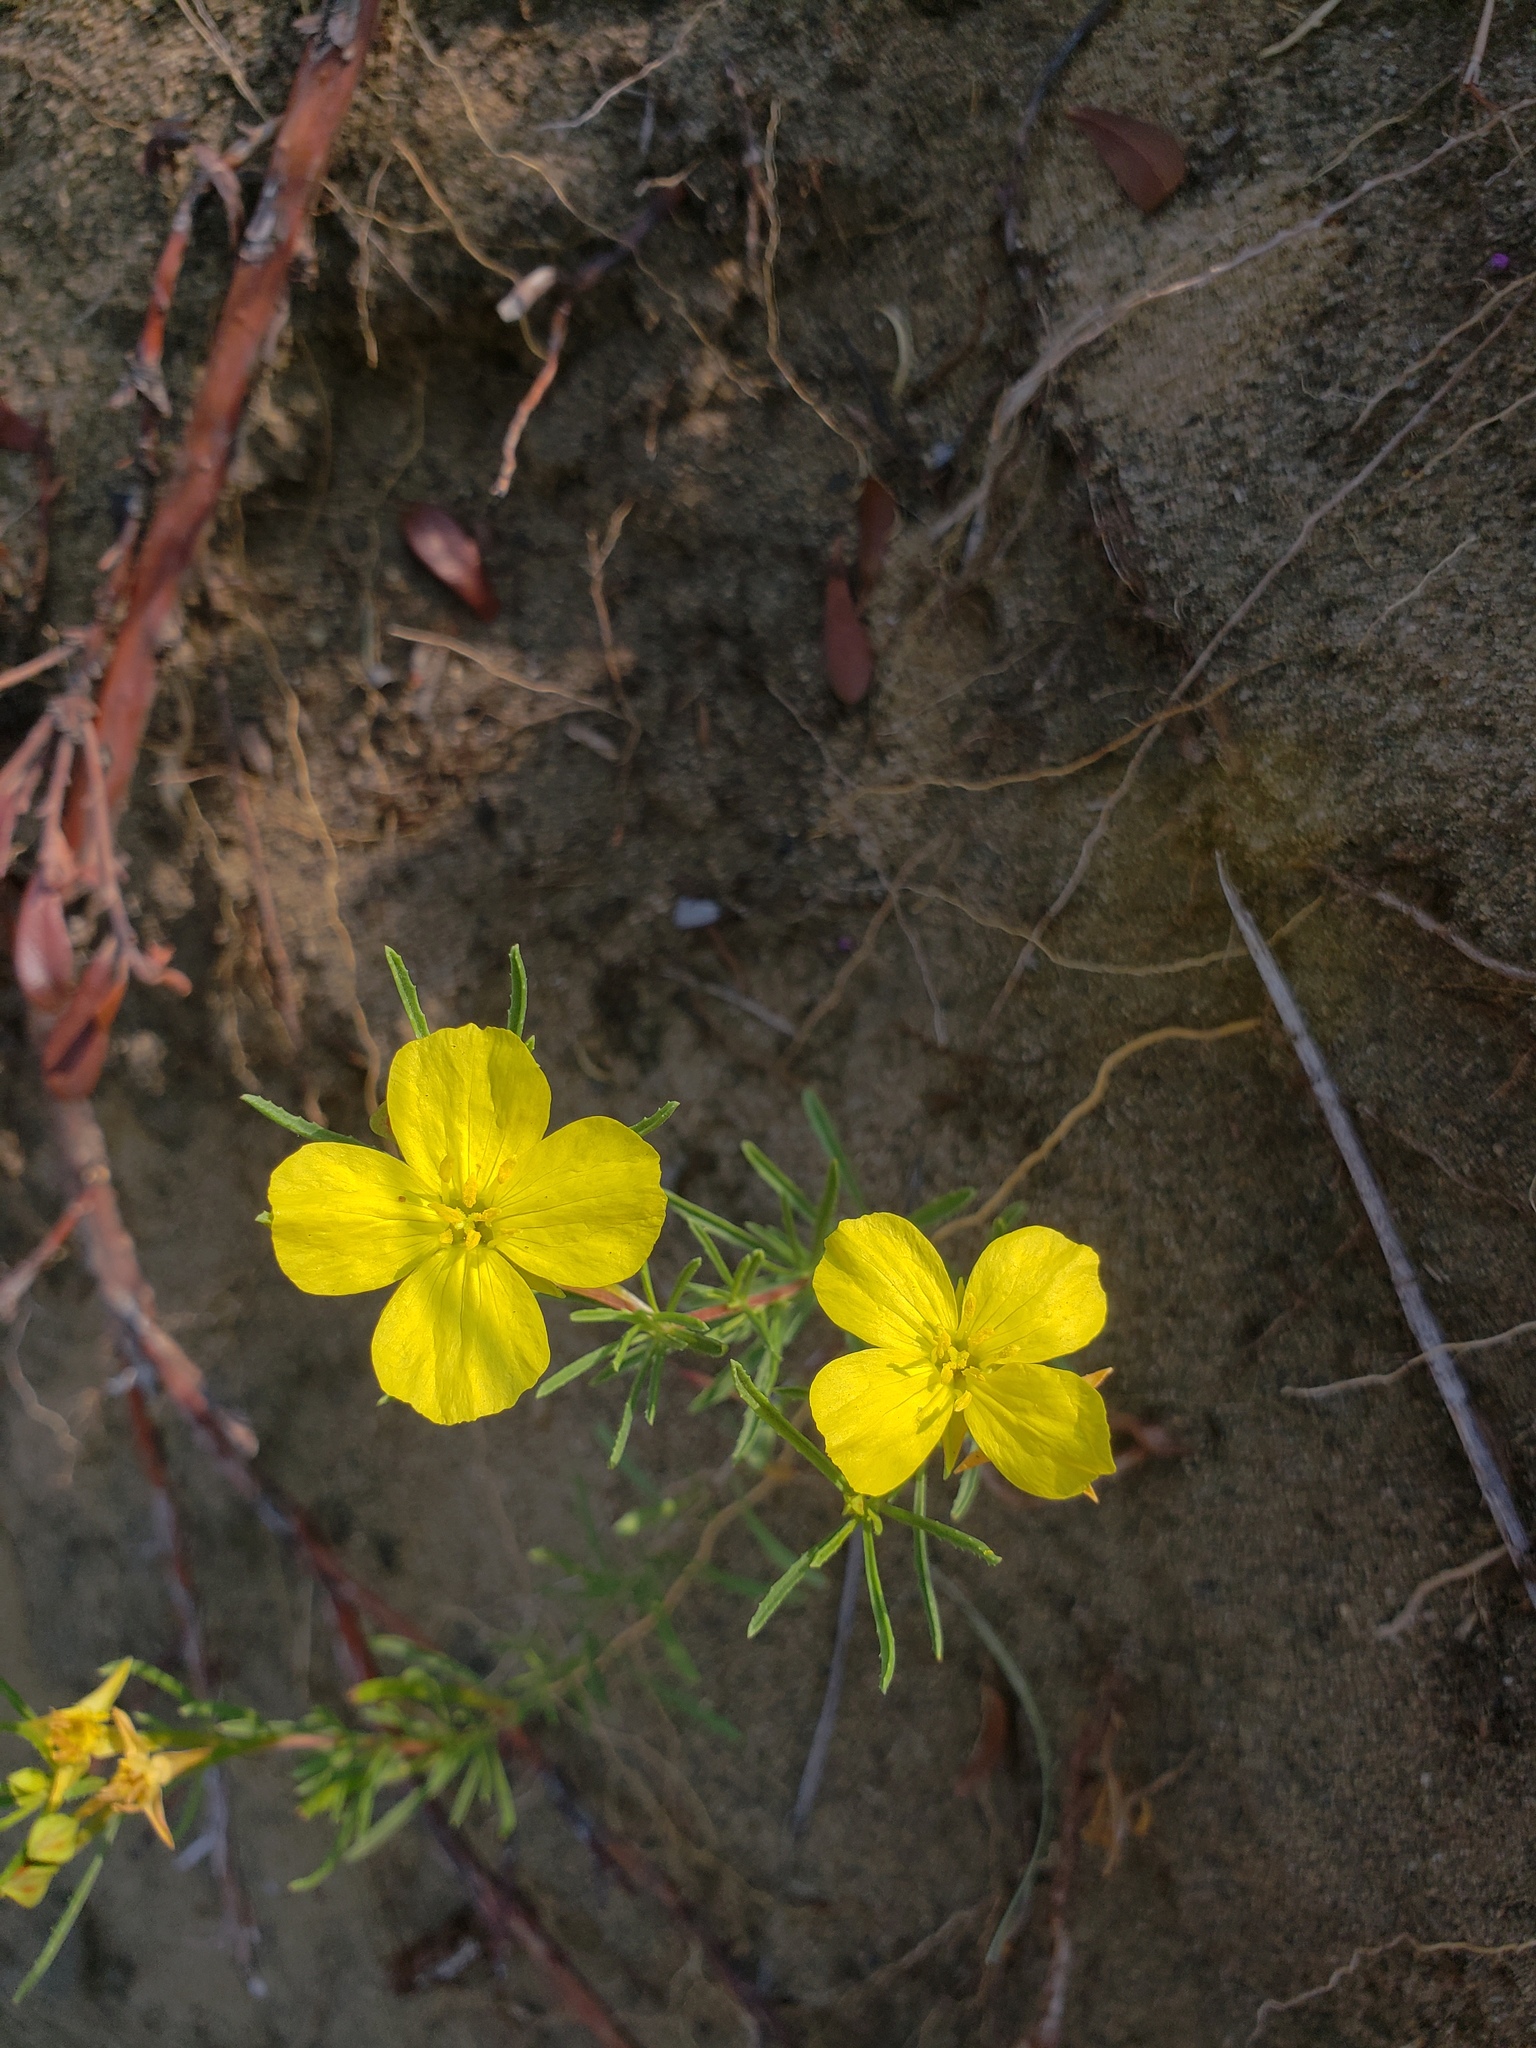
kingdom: Plantae
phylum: Tracheophyta
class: Magnoliopsida
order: Myrtales
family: Onagraceae
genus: Oenothera
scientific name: Oenothera serrulata
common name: Half-shrub calylophus
